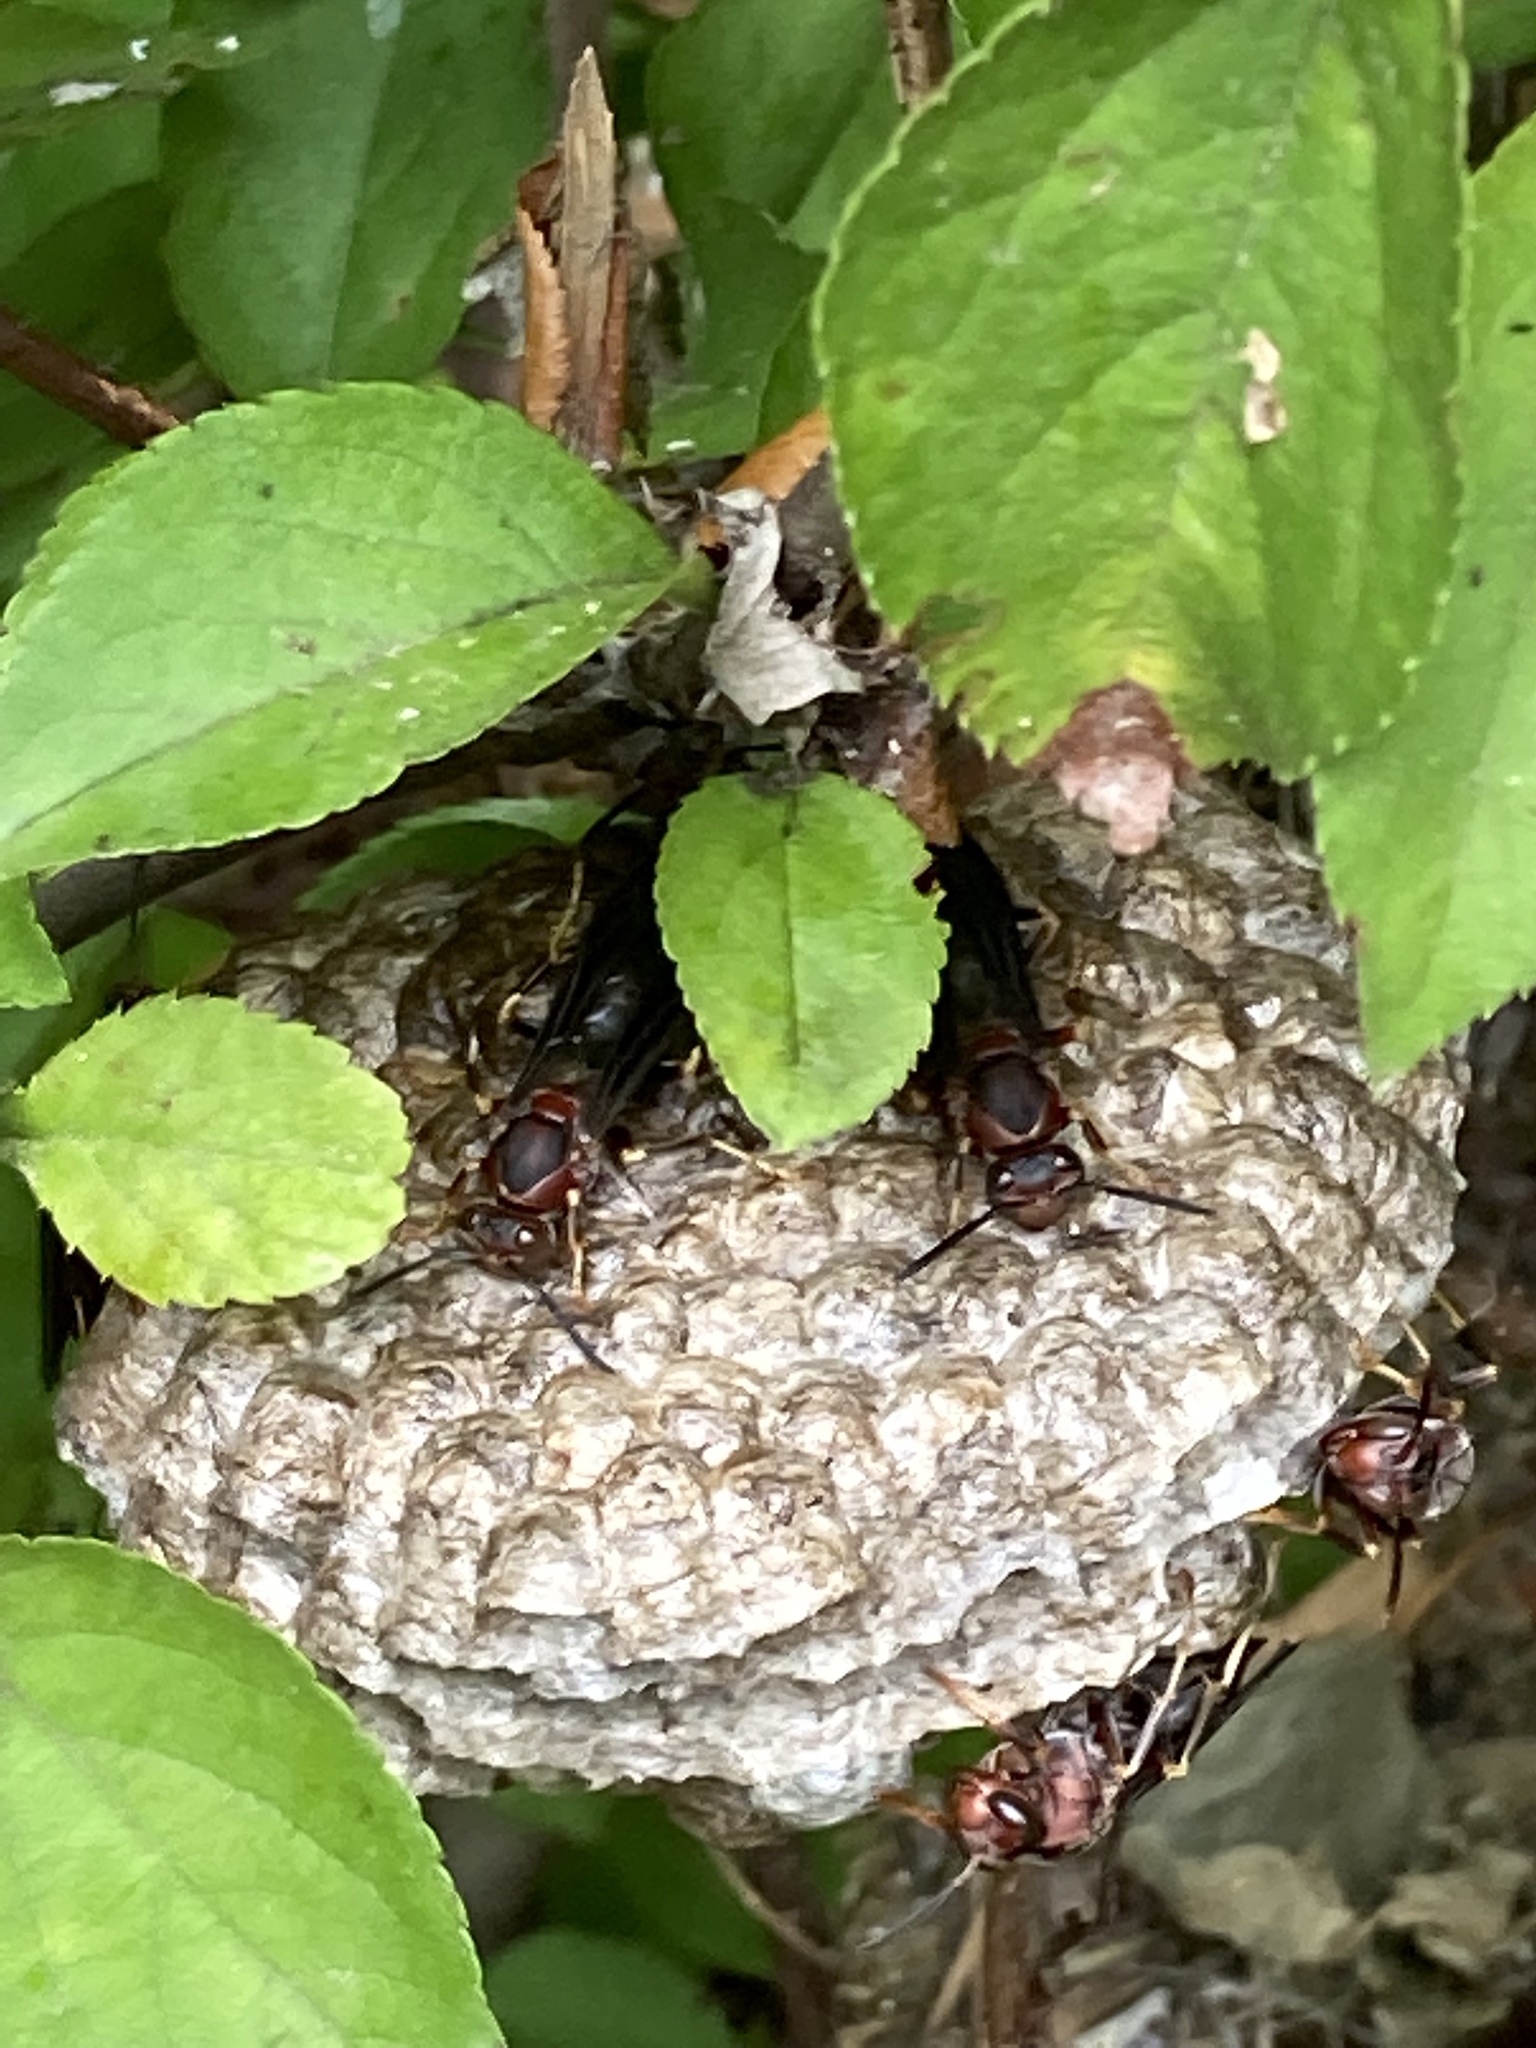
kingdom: Animalia
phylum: Arthropoda
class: Insecta
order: Hymenoptera
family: Eumenidae
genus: Polistes
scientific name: Polistes
